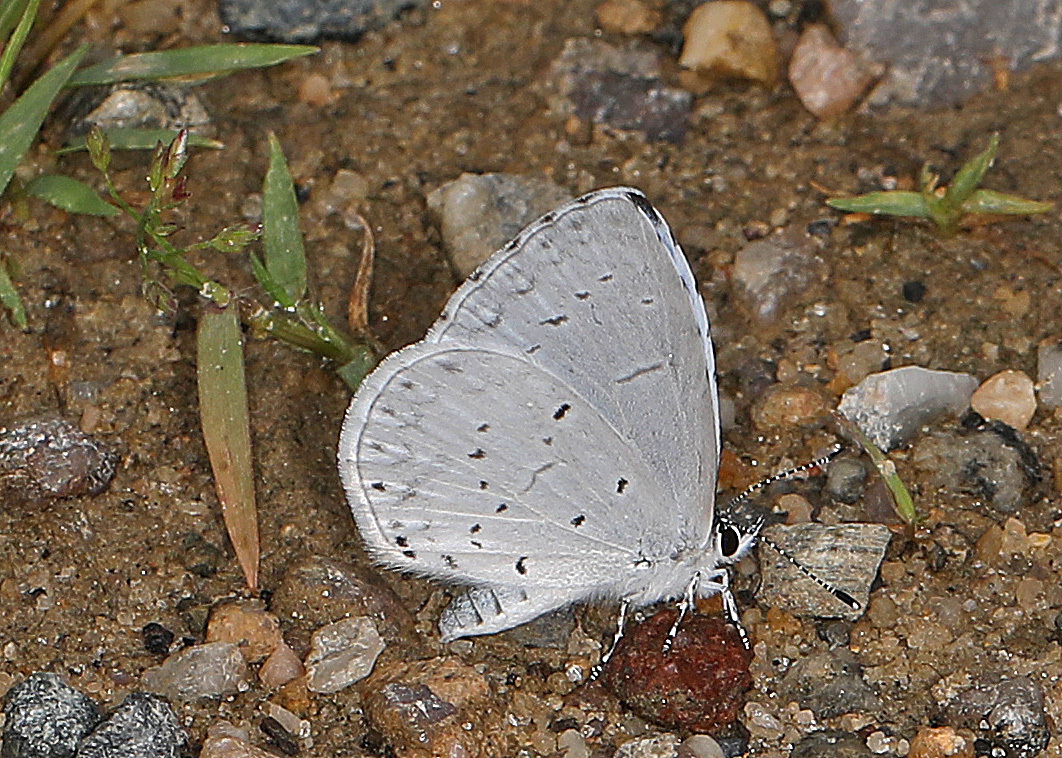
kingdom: Animalia
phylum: Arthropoda
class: Insecta
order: Lepidoptera
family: Lycaenidae
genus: Cyaniris
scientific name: Cyaniris neglecta
